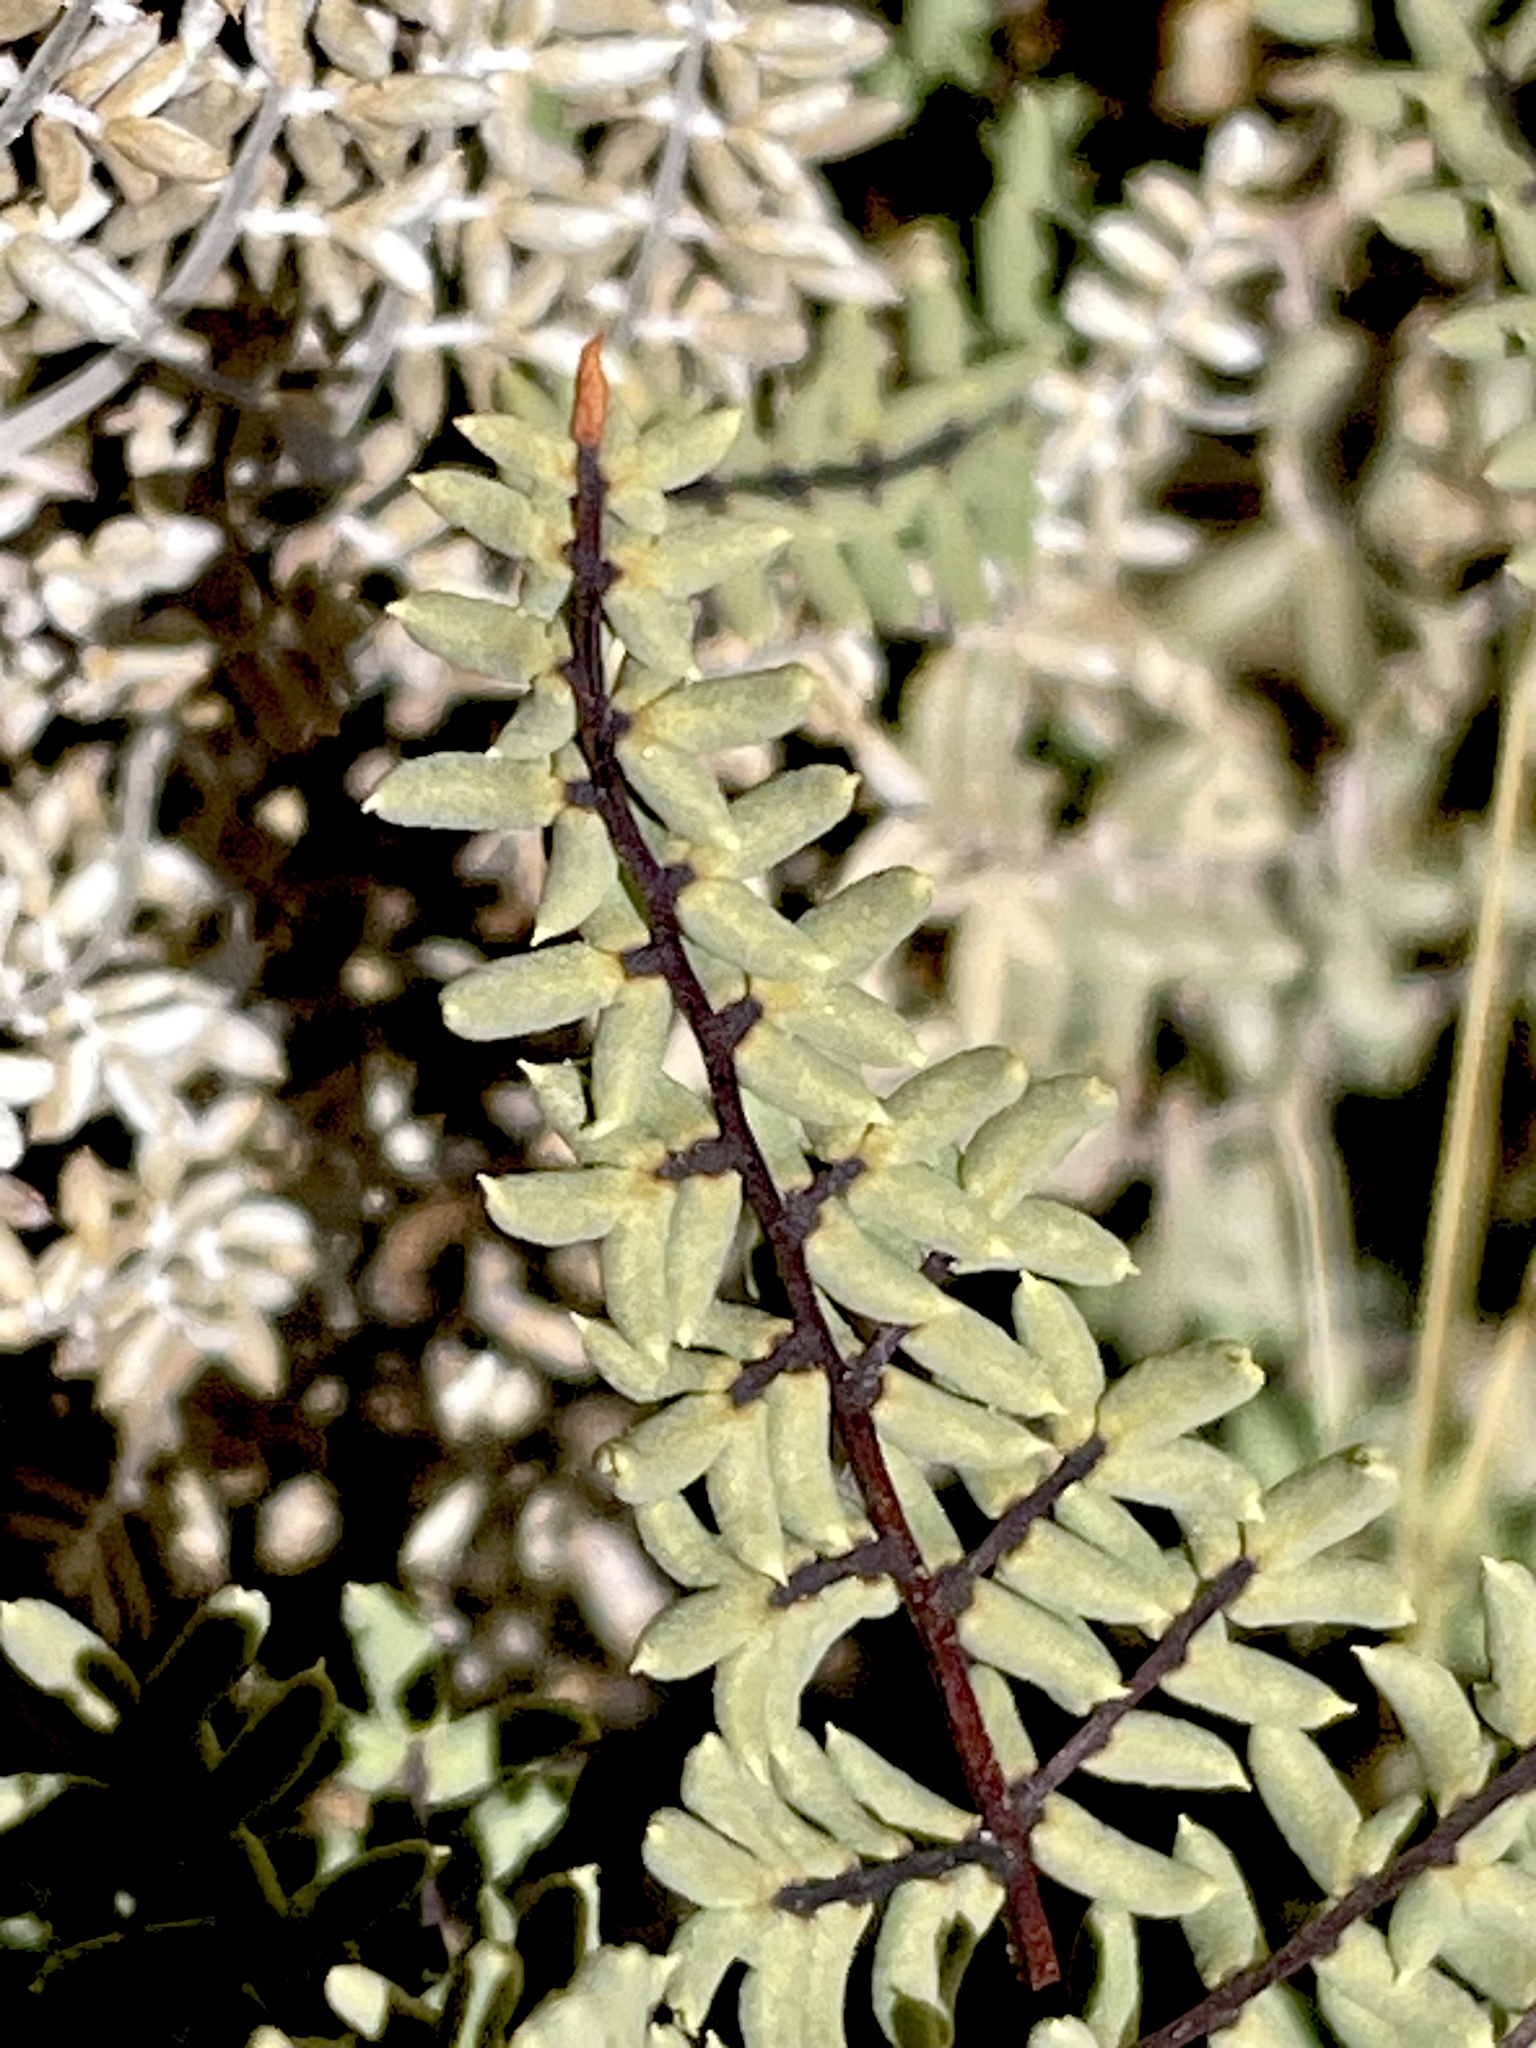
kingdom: Plantae
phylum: Tracheophyta
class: Polypodiopsida
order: Polypodiales
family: Pteridaceae
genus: Pellaea
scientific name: Pellaea mucronata
